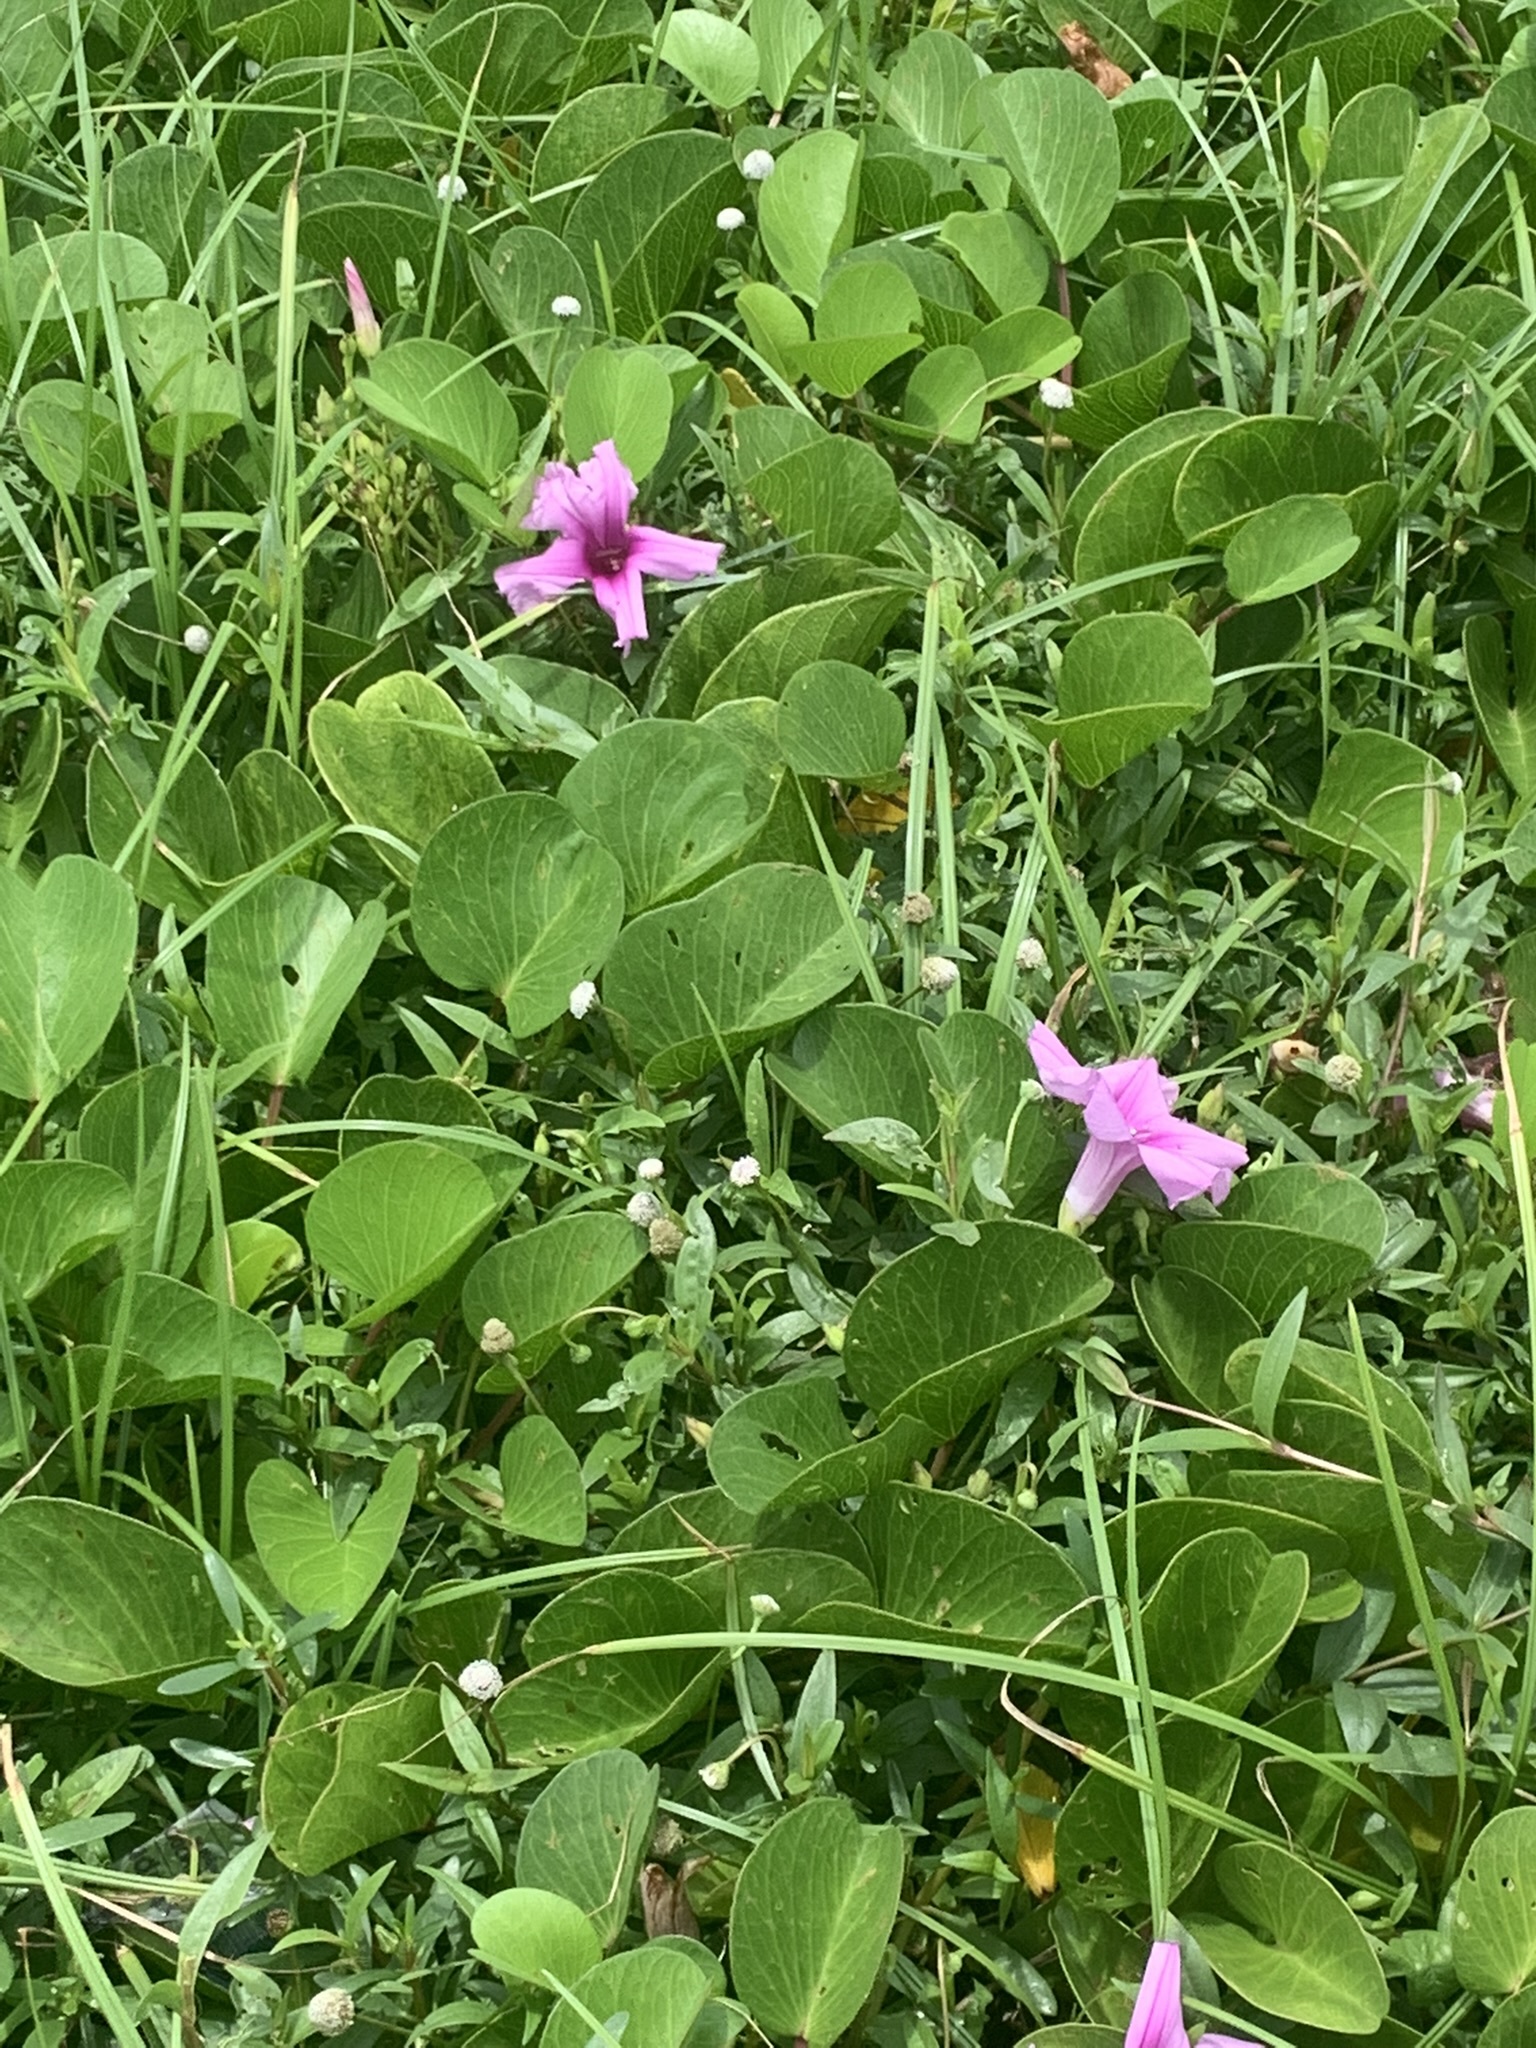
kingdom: Plantae
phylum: Tracheophyta
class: Magnoliopsida
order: Solanales
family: Convolvulaceae
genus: Ipomoea
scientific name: Ipomoea pes-caprae
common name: Beach morning glory
